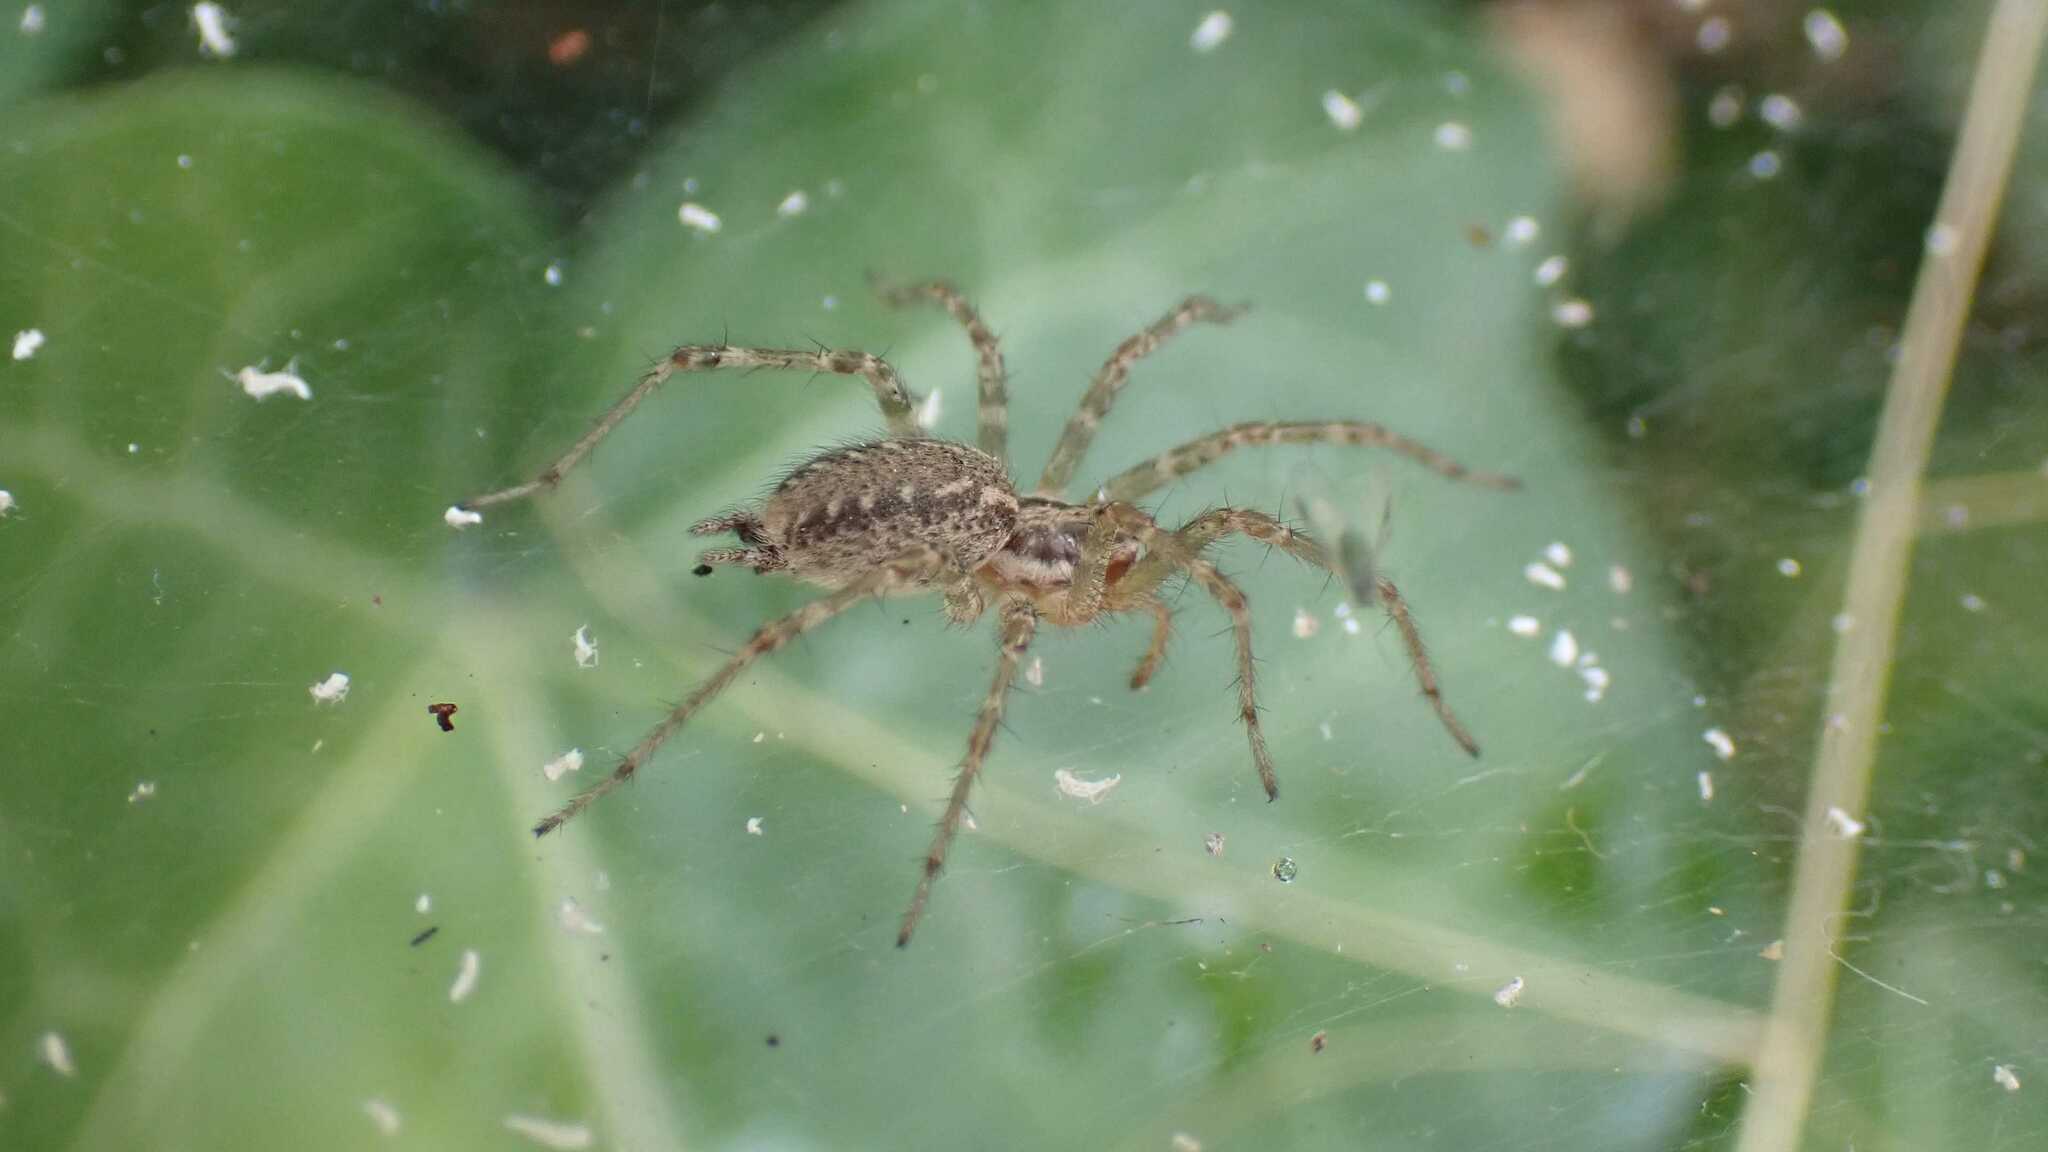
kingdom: Animalia
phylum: Arthropoda
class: Arachnida
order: Araneae
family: Agelenidae
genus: Allagelena
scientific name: Allagelena gracilens
